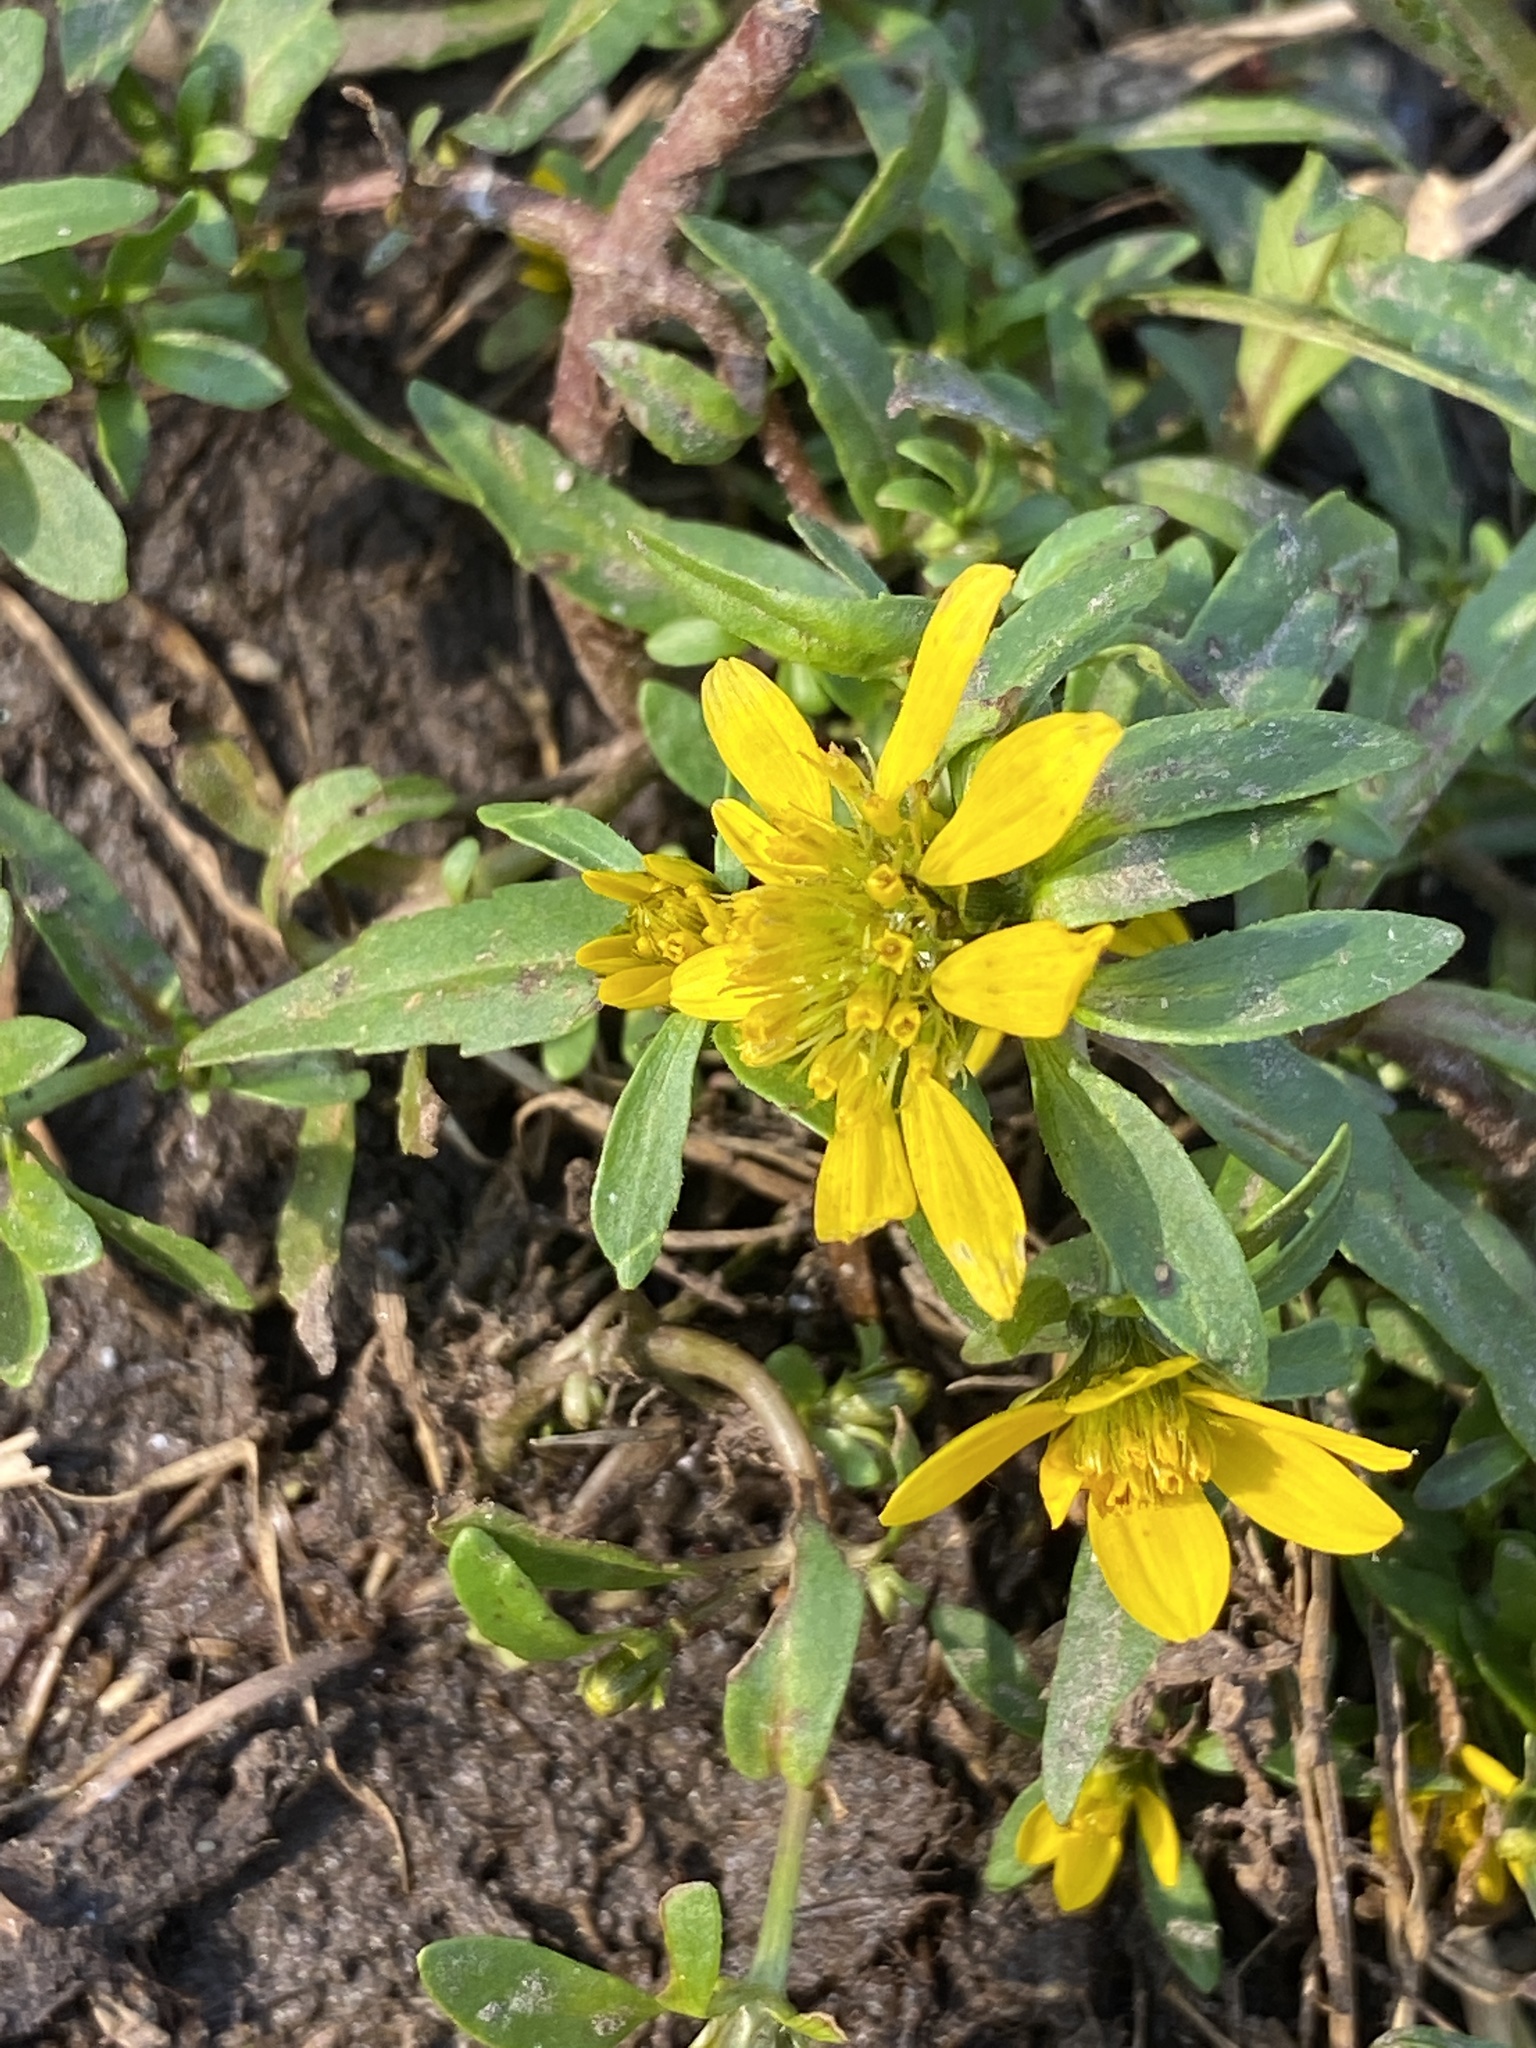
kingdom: Plantae
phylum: Tracheophyta
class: Magnoliopsida
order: Asterales
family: Asteraceae
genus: Bidens
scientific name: Bidens cernua
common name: Nodding bur-marigold
